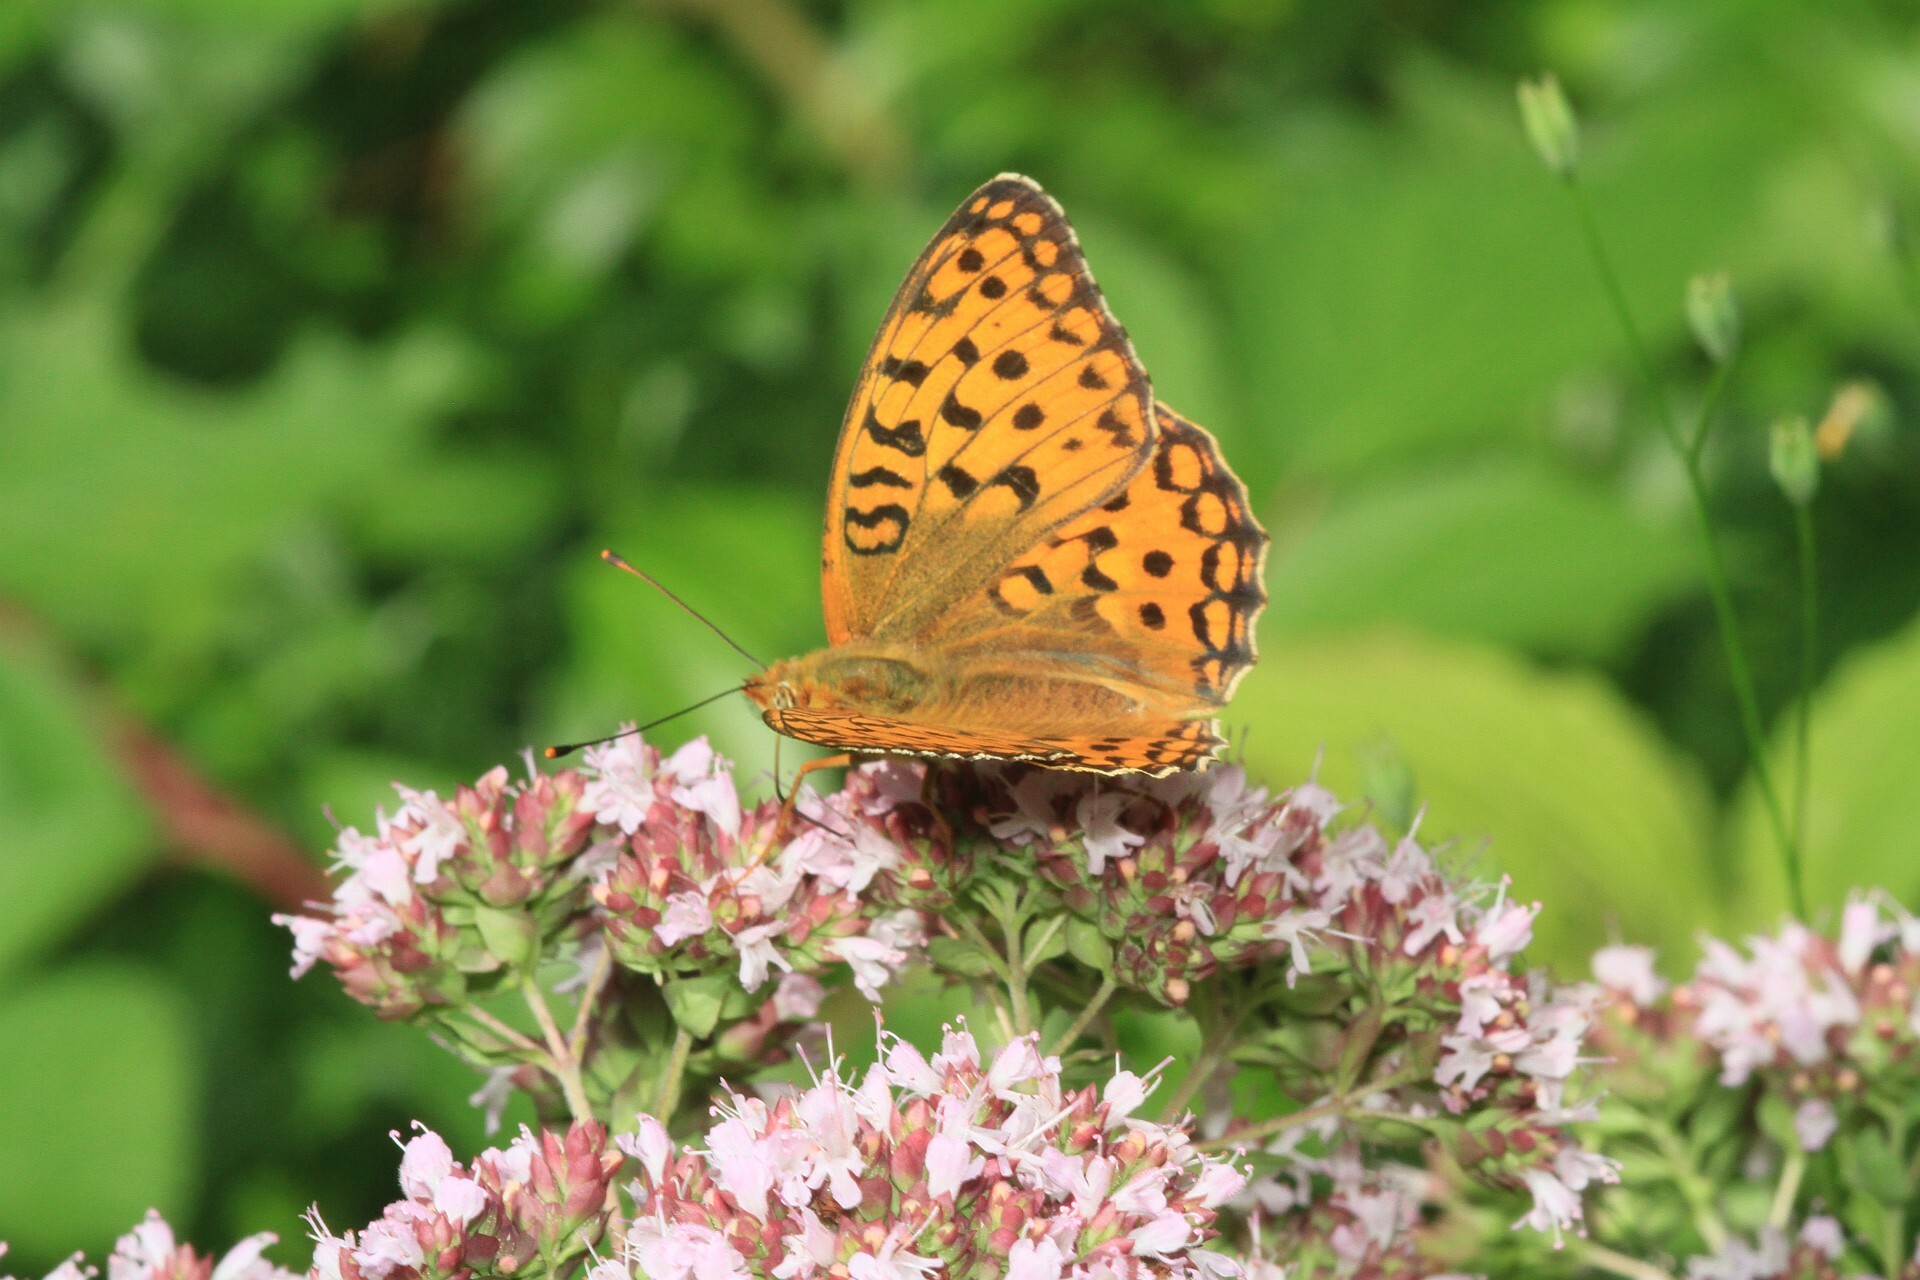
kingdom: Animalia
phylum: Arthropoda
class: Insecta
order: Lepidoptera
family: Nymphalidae
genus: Fabriciana
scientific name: Fabriciana adippe
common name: High brown fritillary
